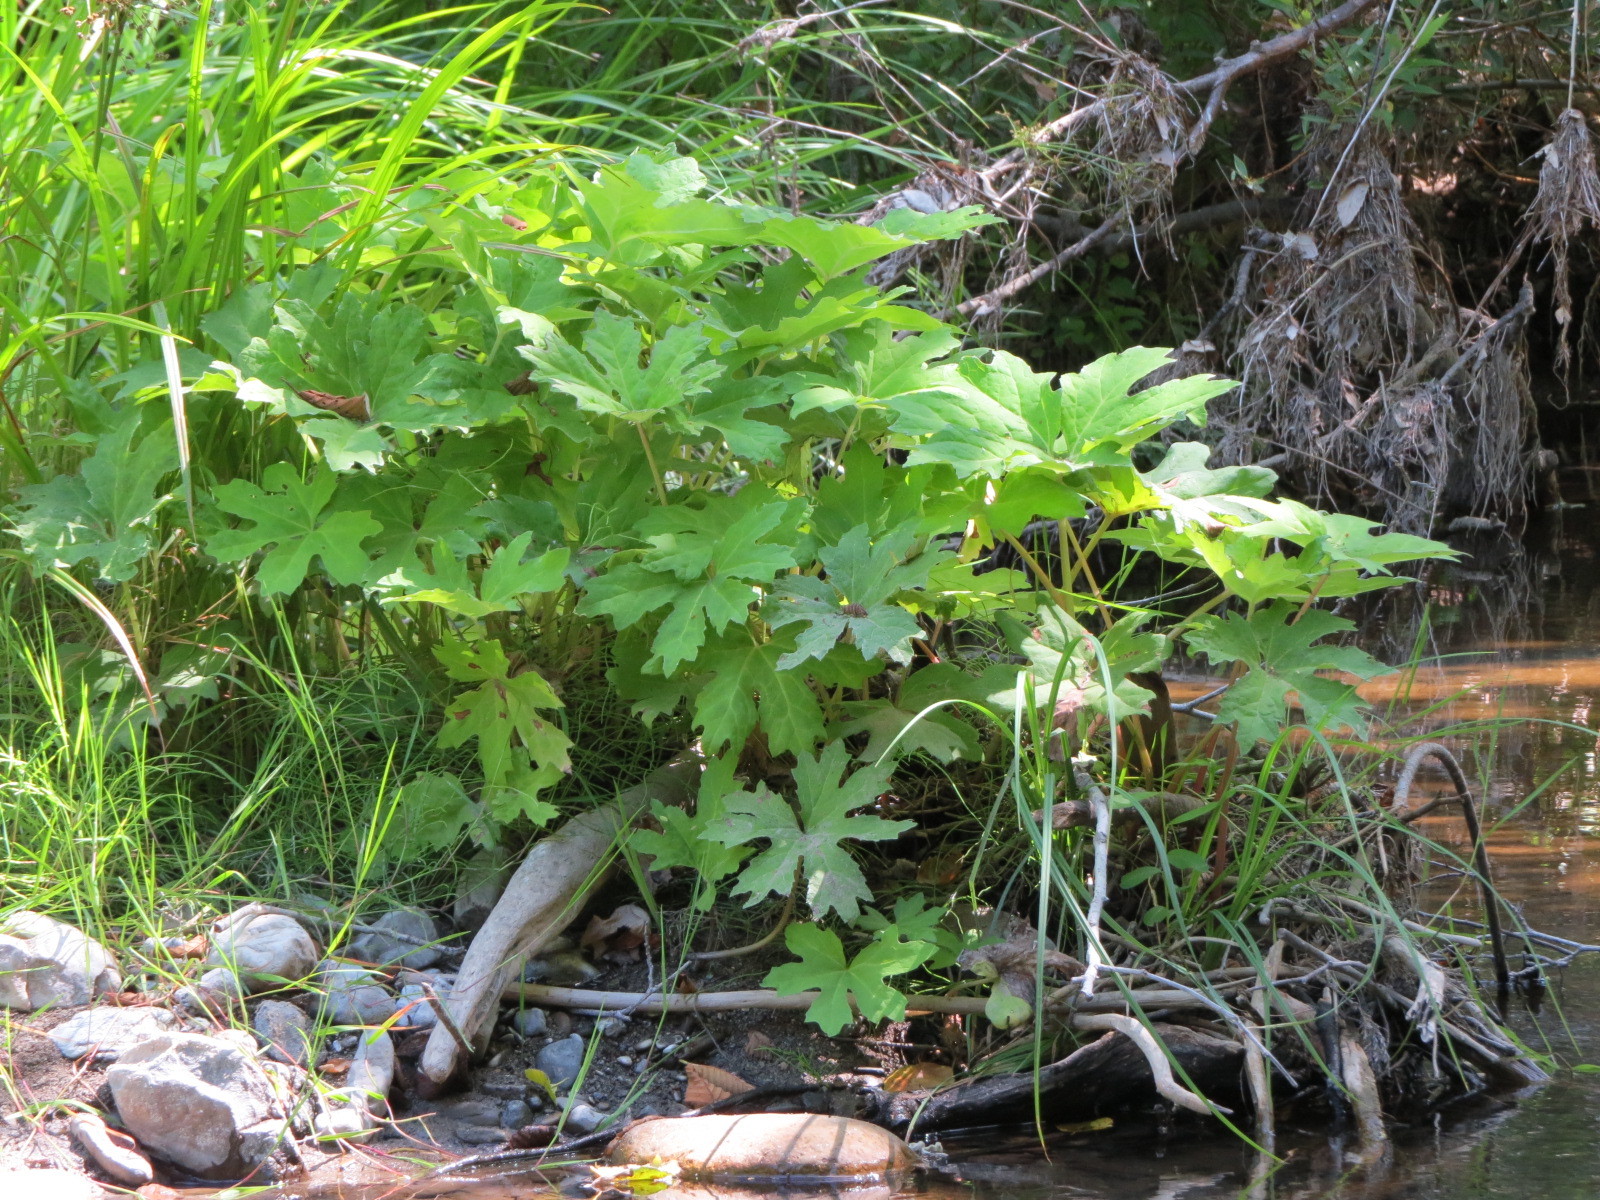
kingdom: Plantae
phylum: Tracheophyta
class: Magnoliopsida
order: Asterales
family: Asteraceae
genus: Petasites
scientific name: Petasites frigidus
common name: Arctic butterbur
